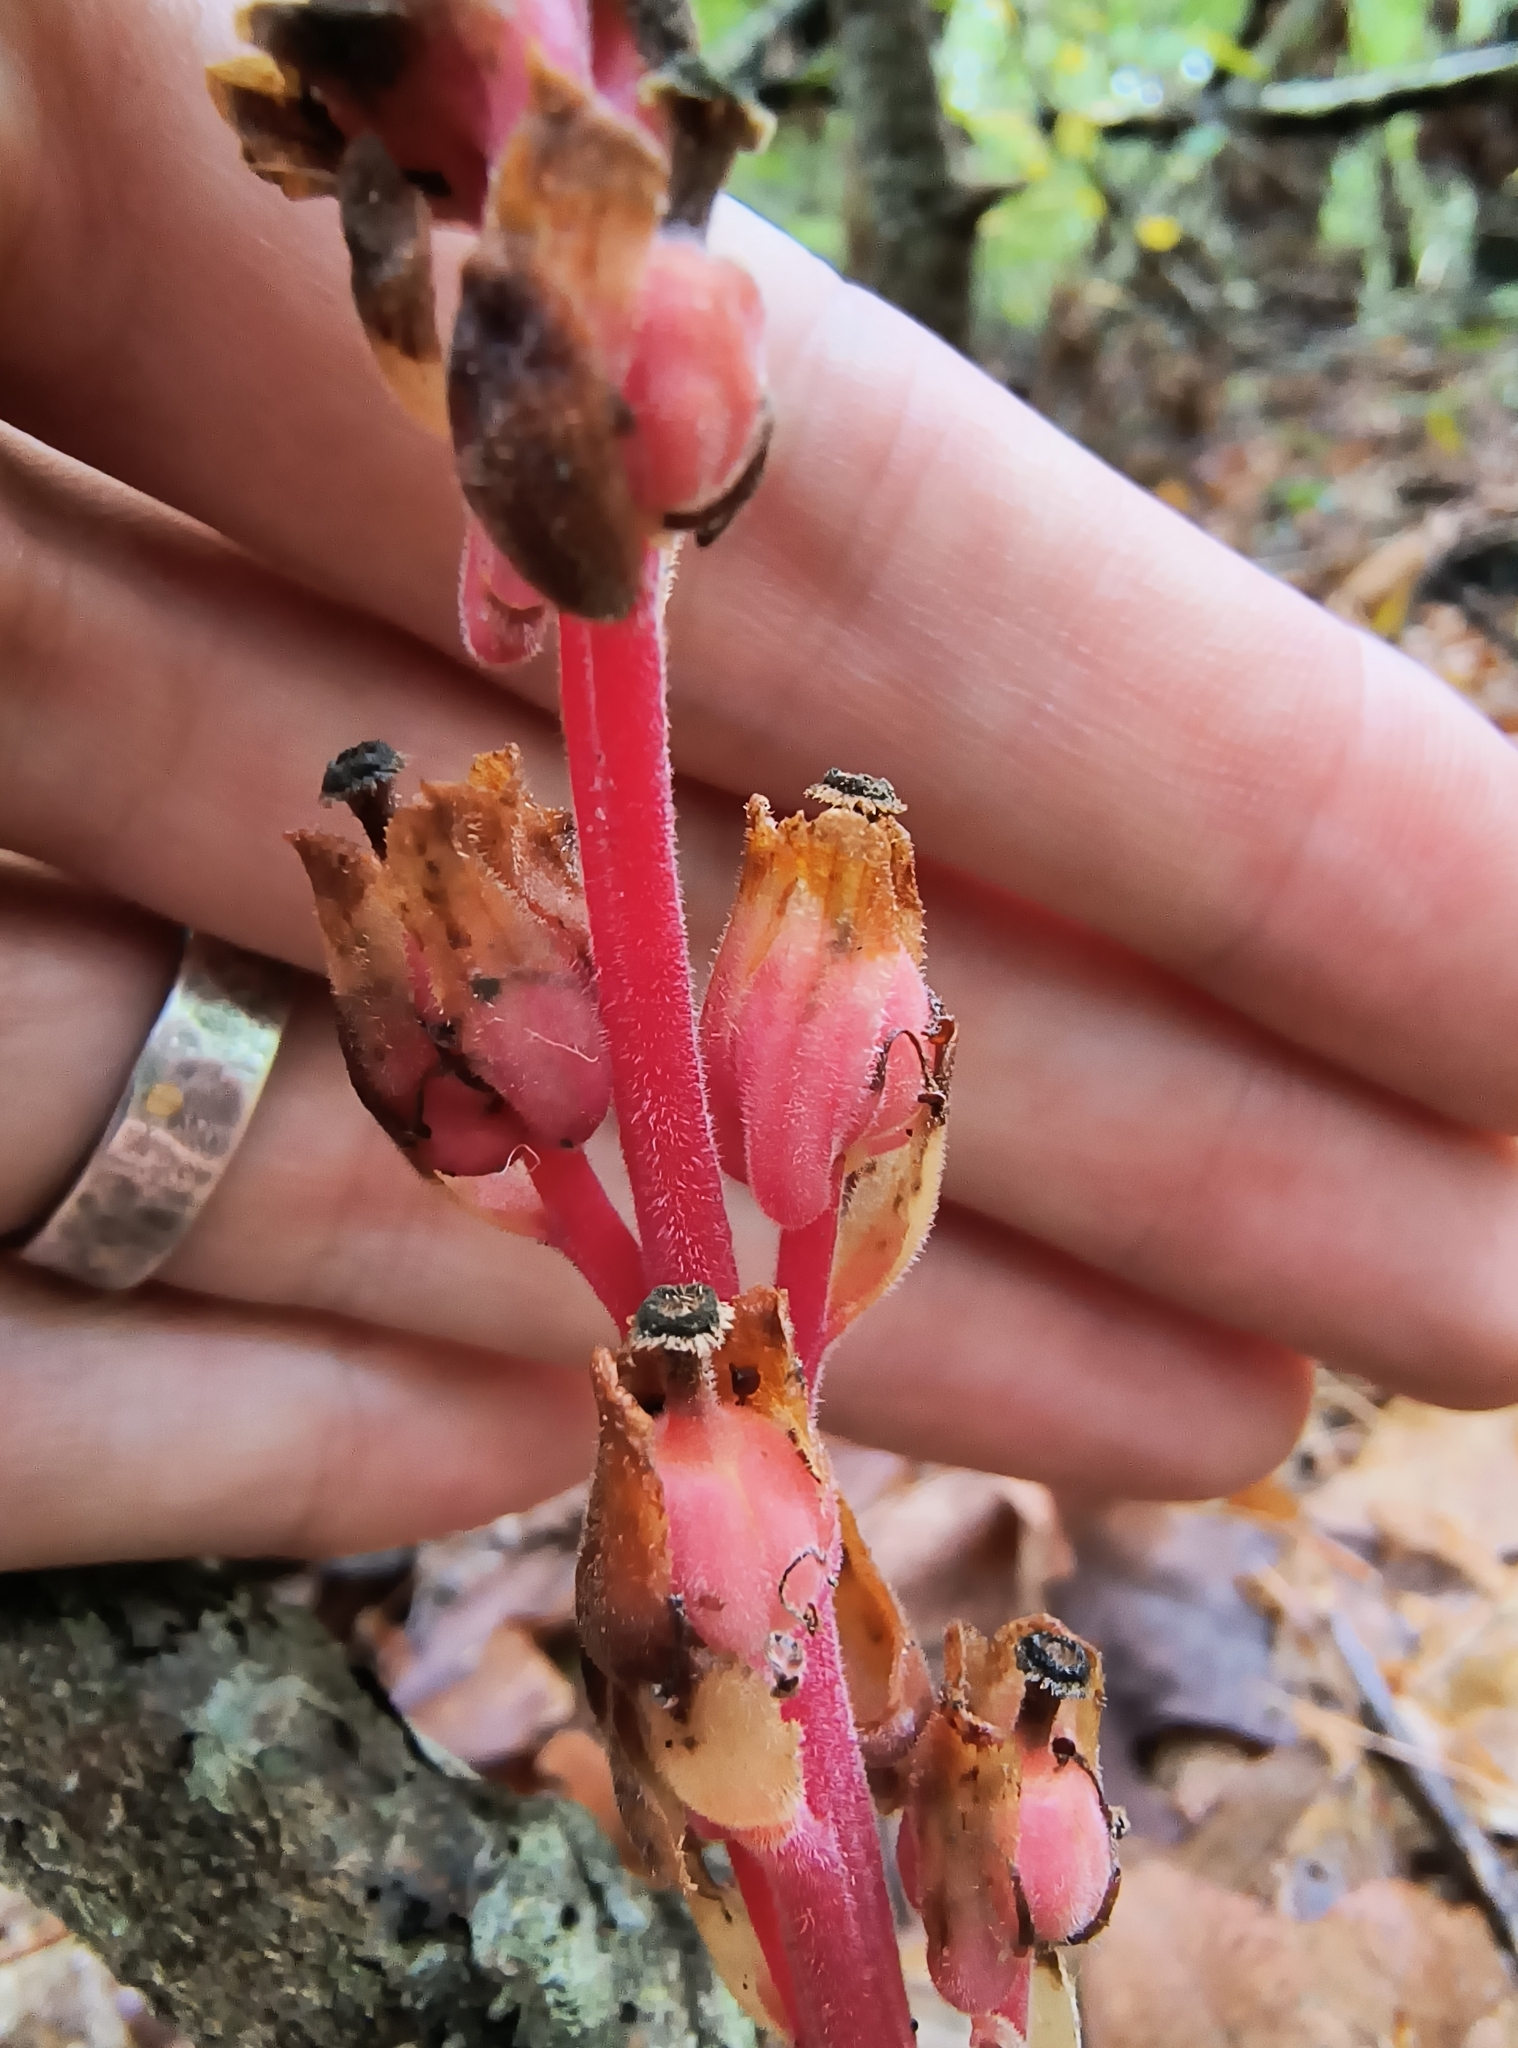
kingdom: Plantae
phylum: Tracheophyta
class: Magnoliopsida
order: Ericales
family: Ericaceae
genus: Hypopitys
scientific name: Hypopitys monotropa
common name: Yellow bird's-nest
